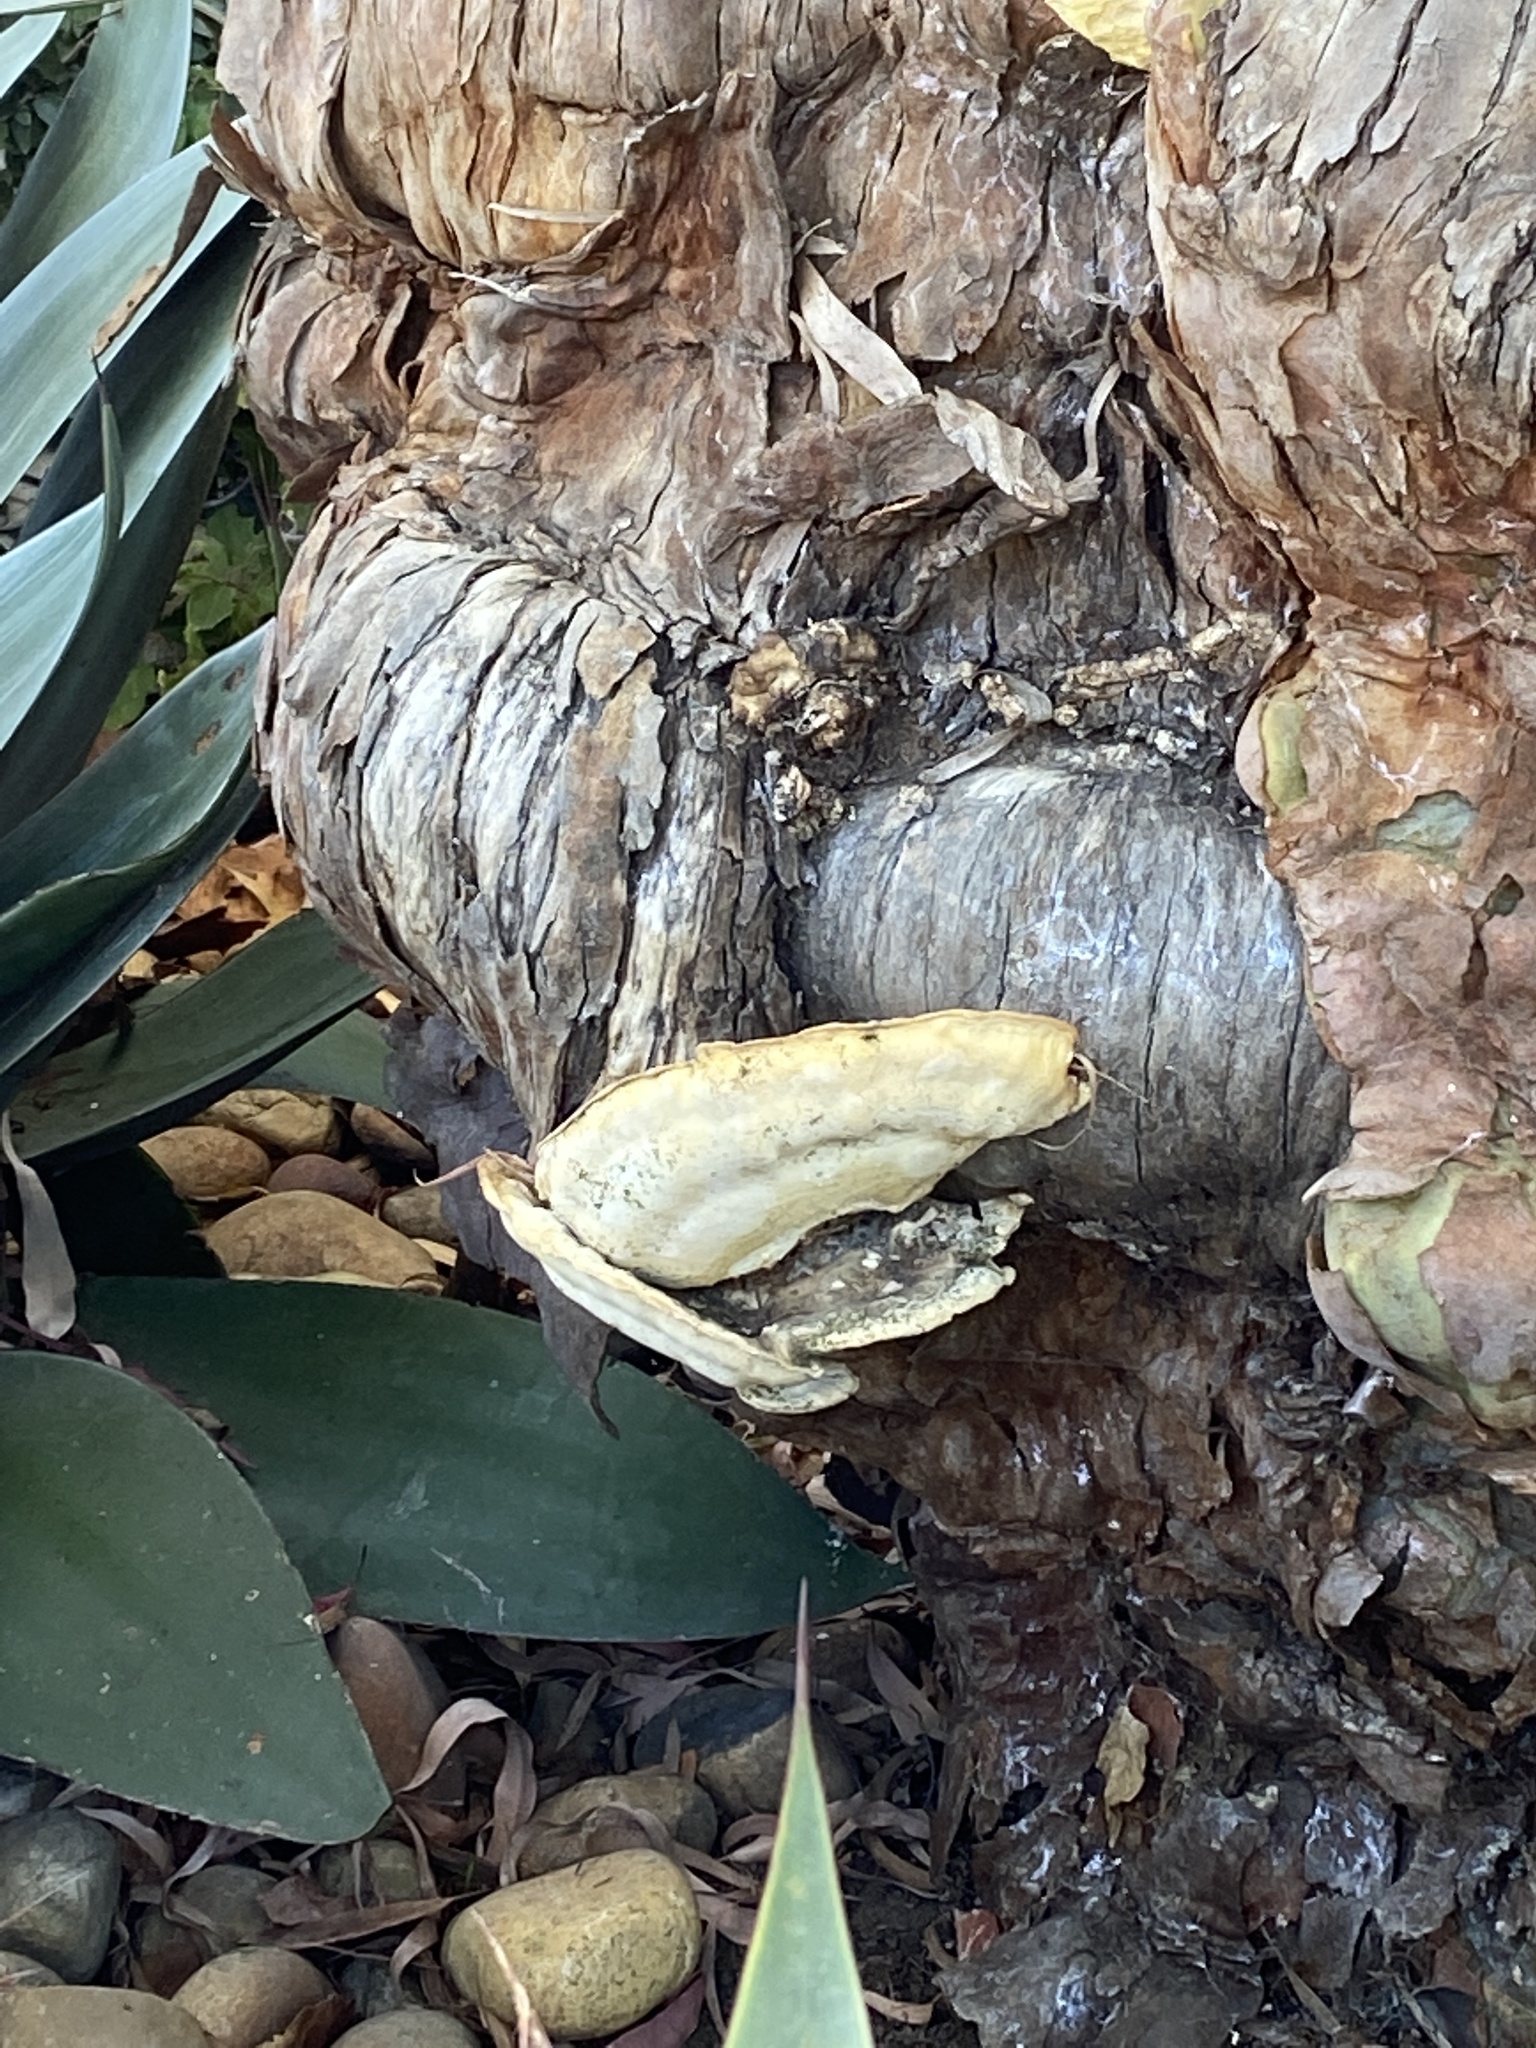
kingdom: Fungi
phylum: Basidiomycota
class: Agaricomycetes
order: Polyporales
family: Laetiporaceae
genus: Laetiporus
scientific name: Laetiporus gilbertsonii
